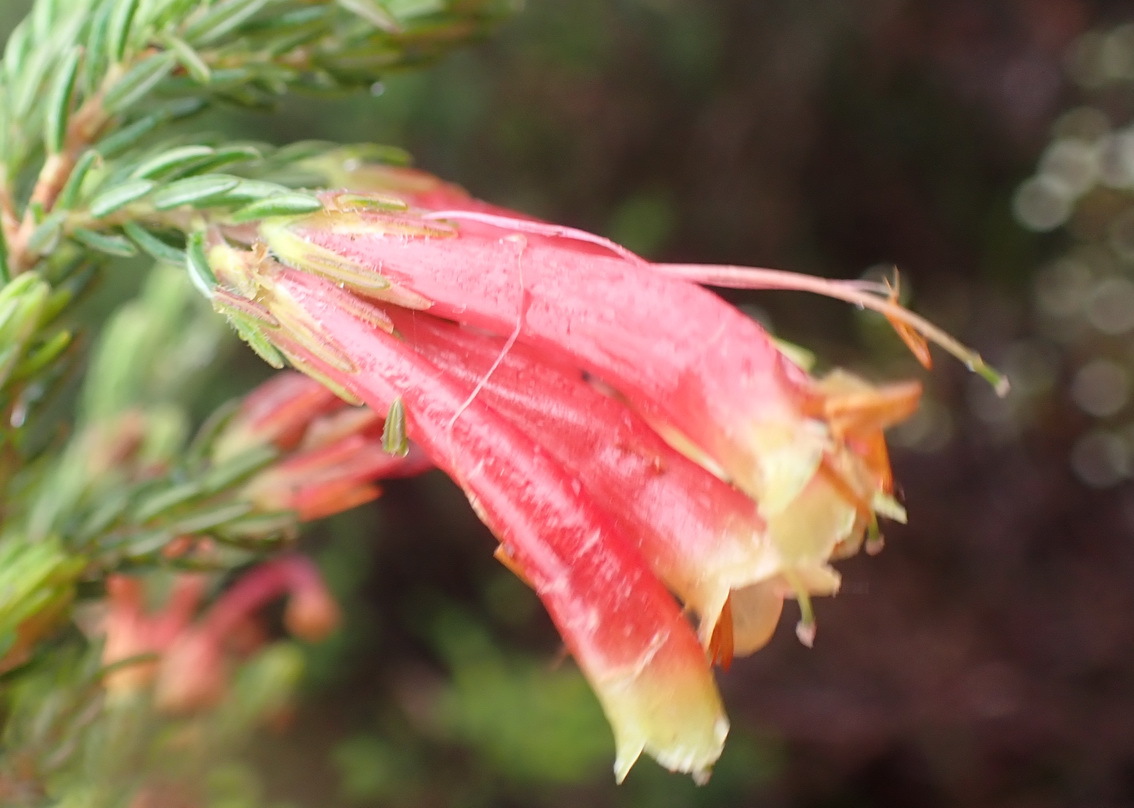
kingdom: Plantae
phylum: Tracheophyta
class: Magnoliopsida
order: Ericales
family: Ericaceae
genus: Erica
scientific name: Erica discolor
